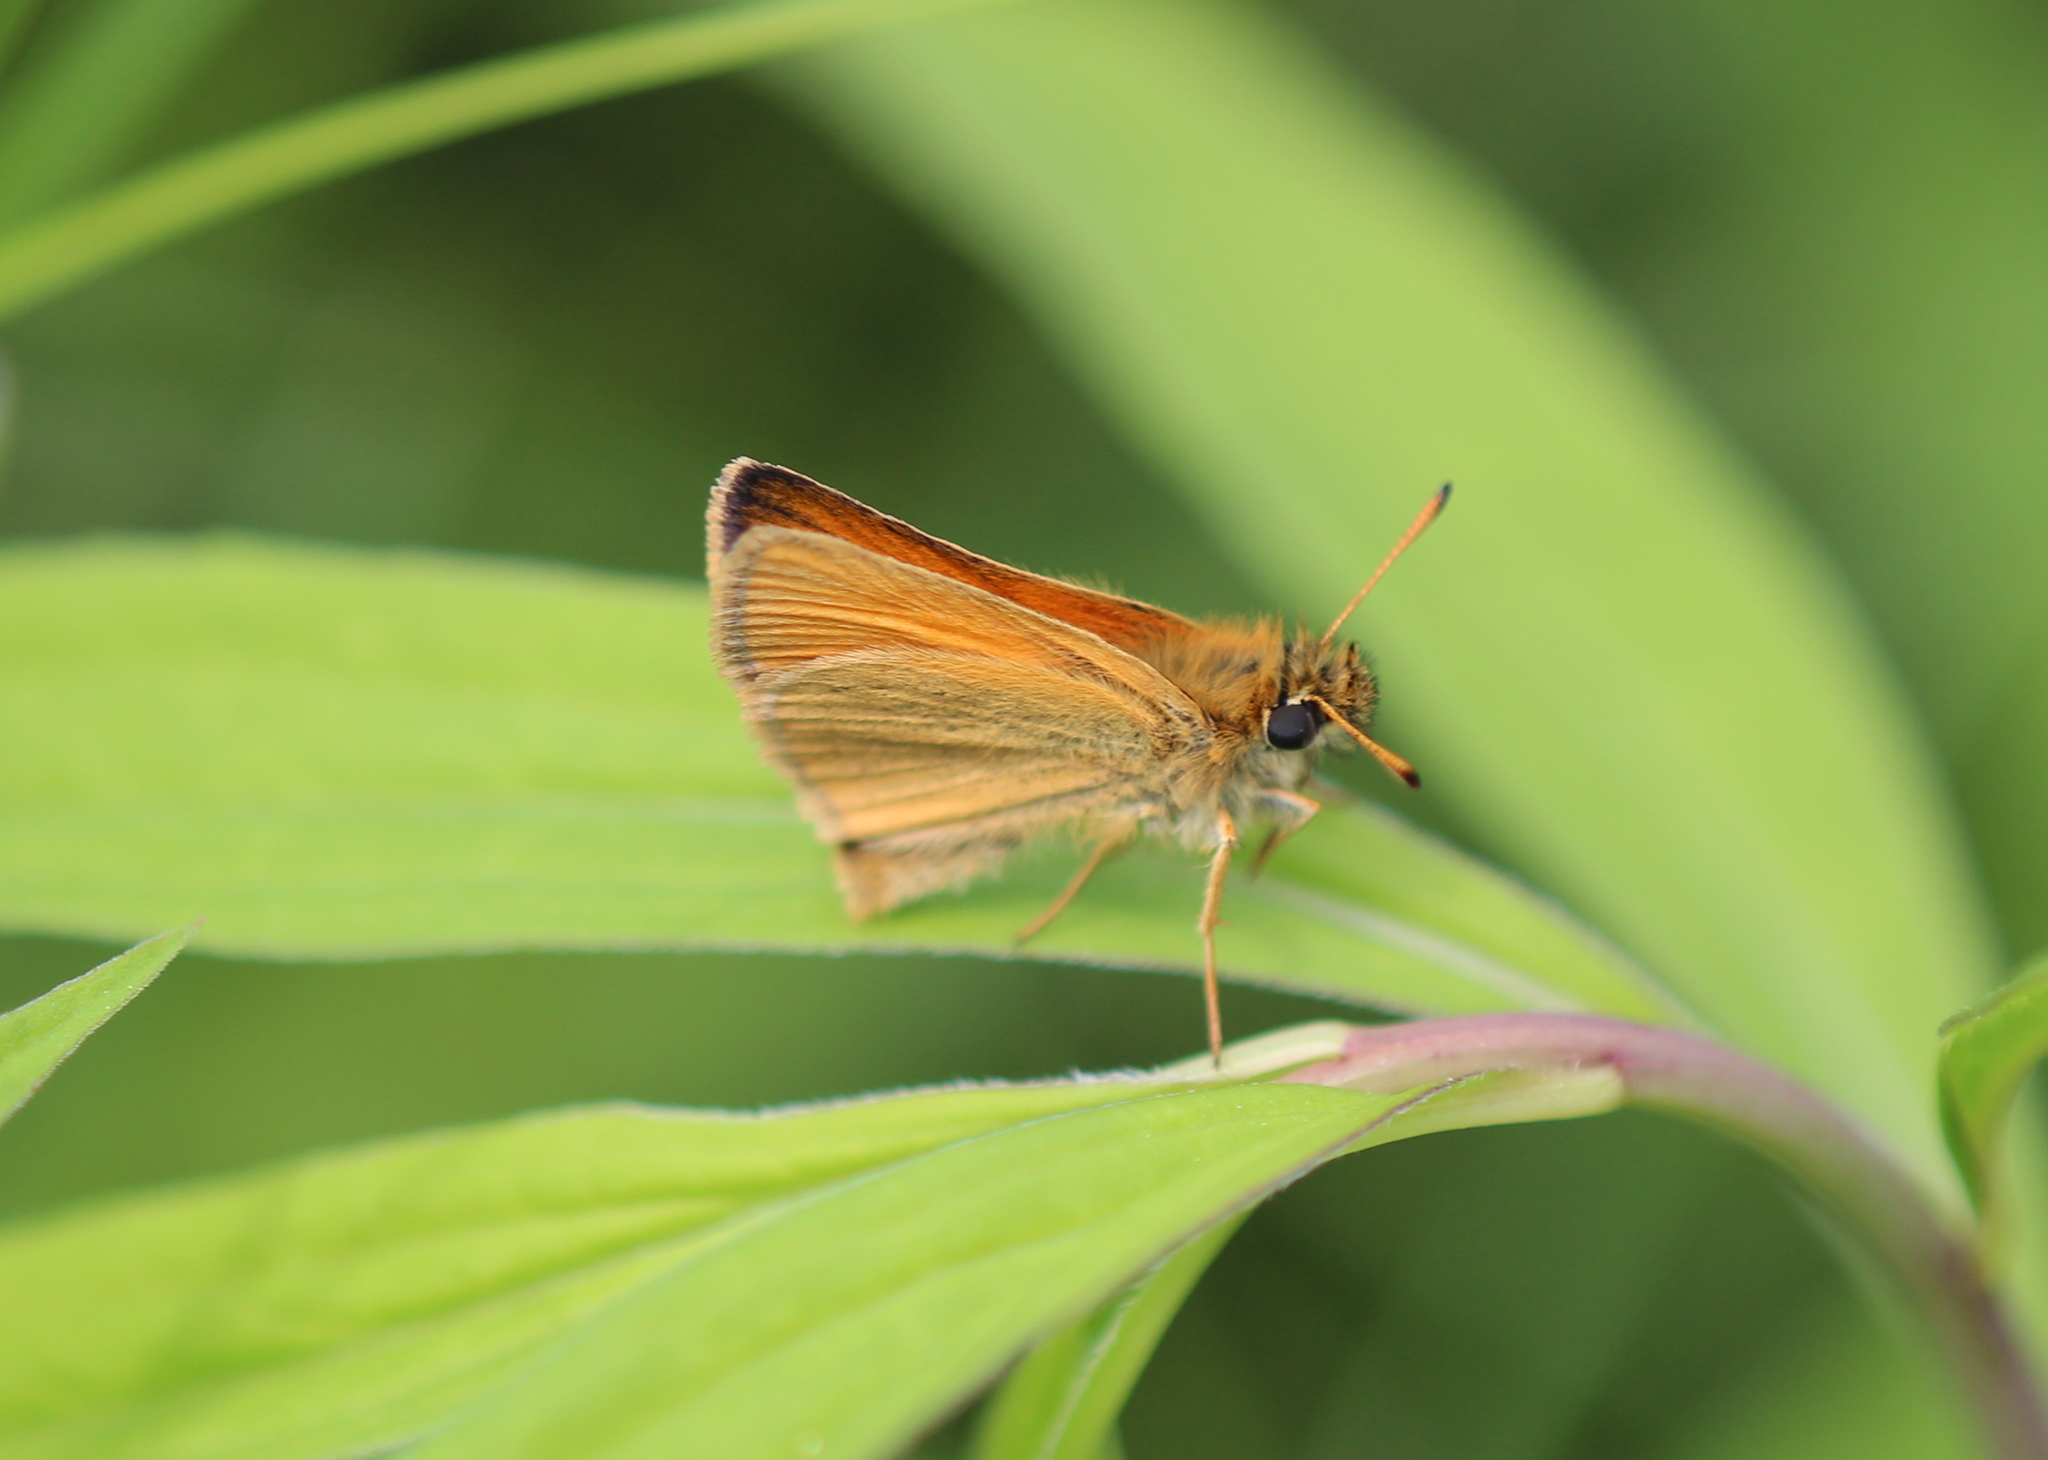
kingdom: Animalia
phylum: Arthropoda
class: Insecta
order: Lepidoptera
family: Hesperiidae
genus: Thymelicus
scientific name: Thymelicus lineola
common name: Essex skipper
